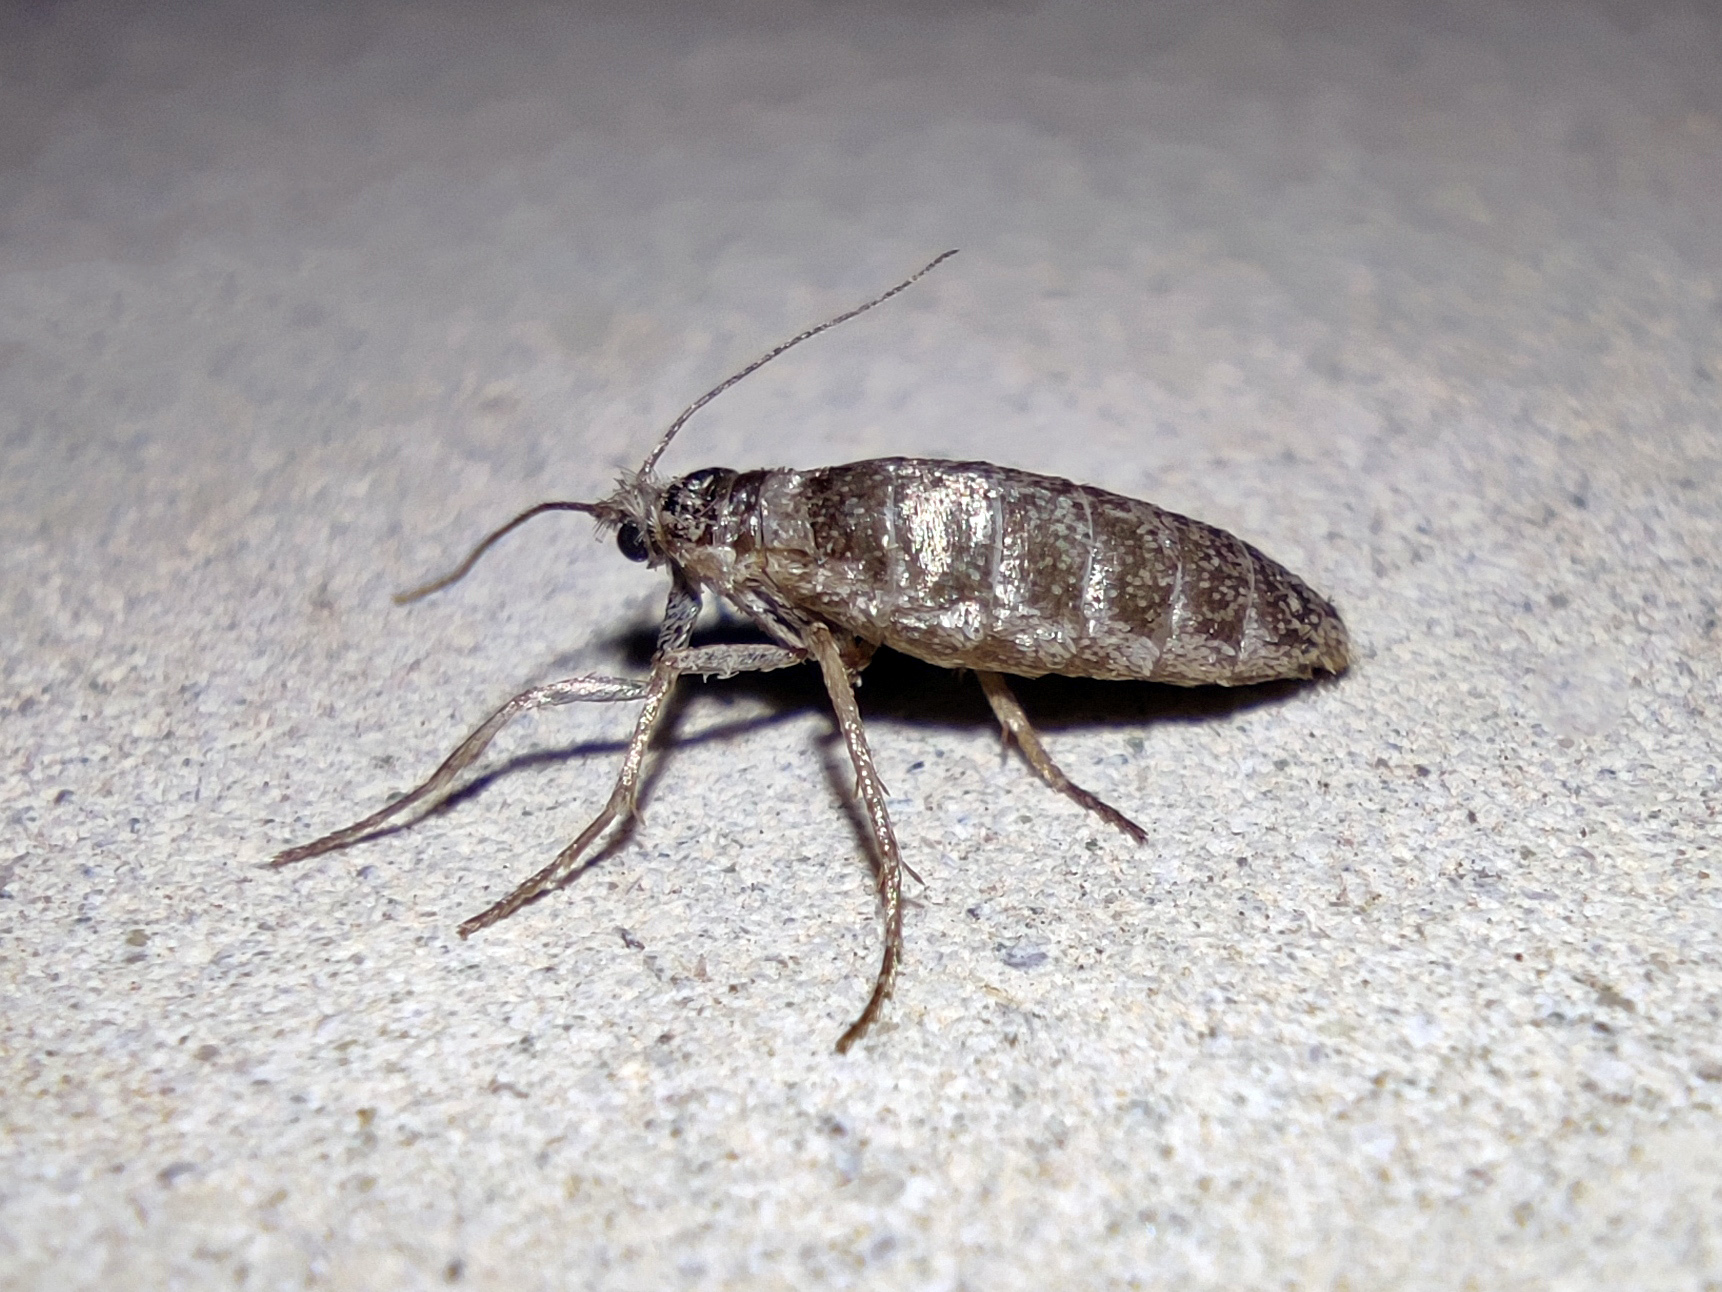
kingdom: Animalia
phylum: Arthropoda
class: Insecta
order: Lepidoptera
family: Eriocottidae
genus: Deuterotinea
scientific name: Deuterotinea casanella
